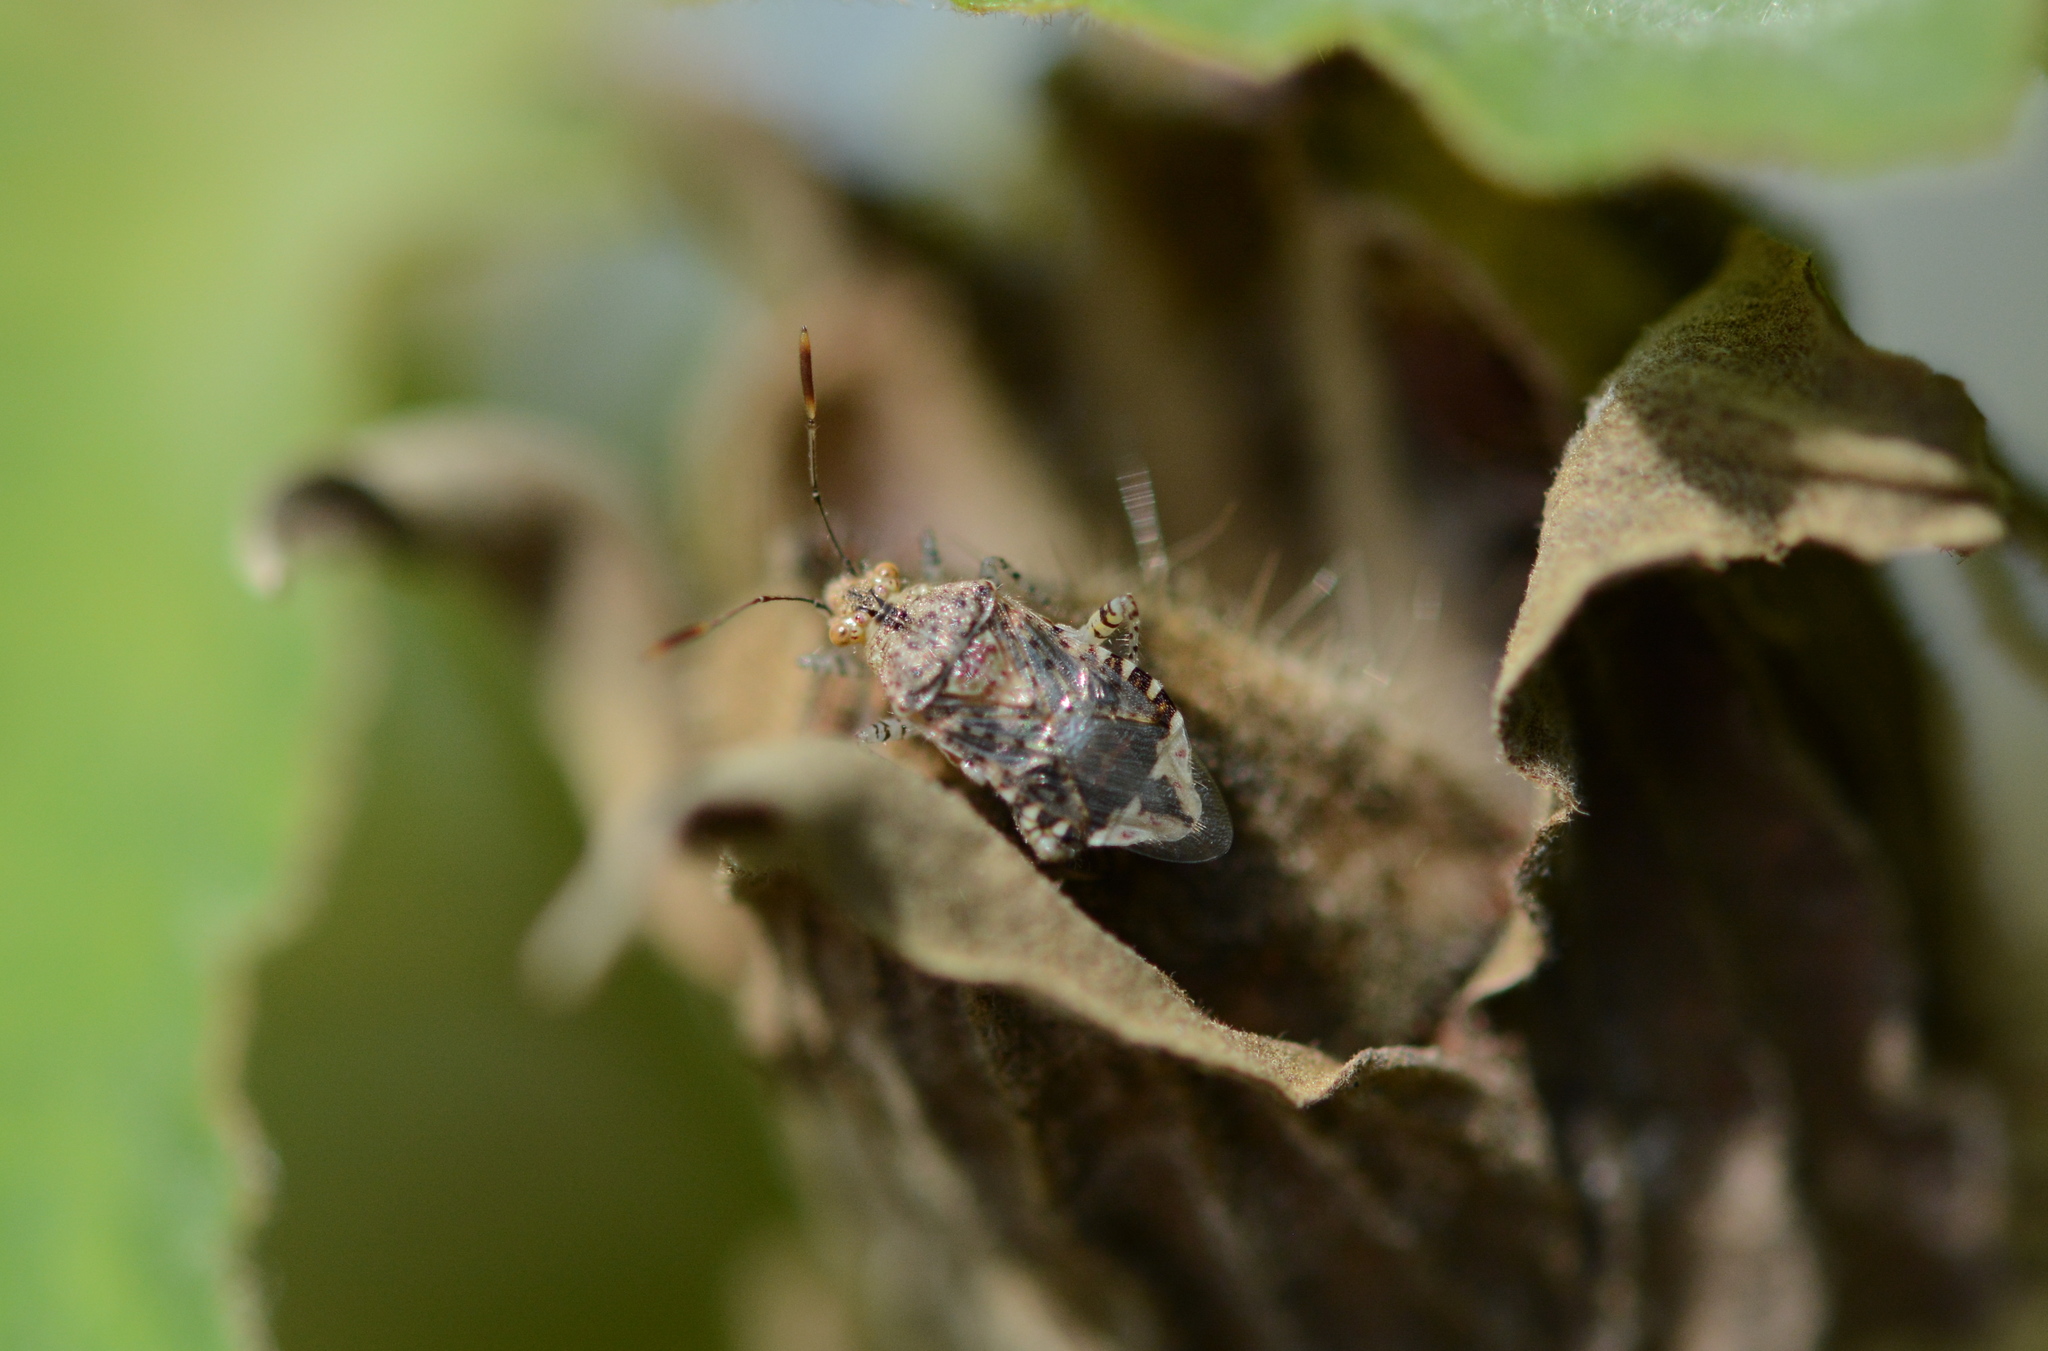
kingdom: Animalia
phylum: Arthropoda
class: Insecta
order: Hemiptera
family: Rhopalidae
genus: Niesthrea
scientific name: Niesthrea louisianica
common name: Scentless plant bug
